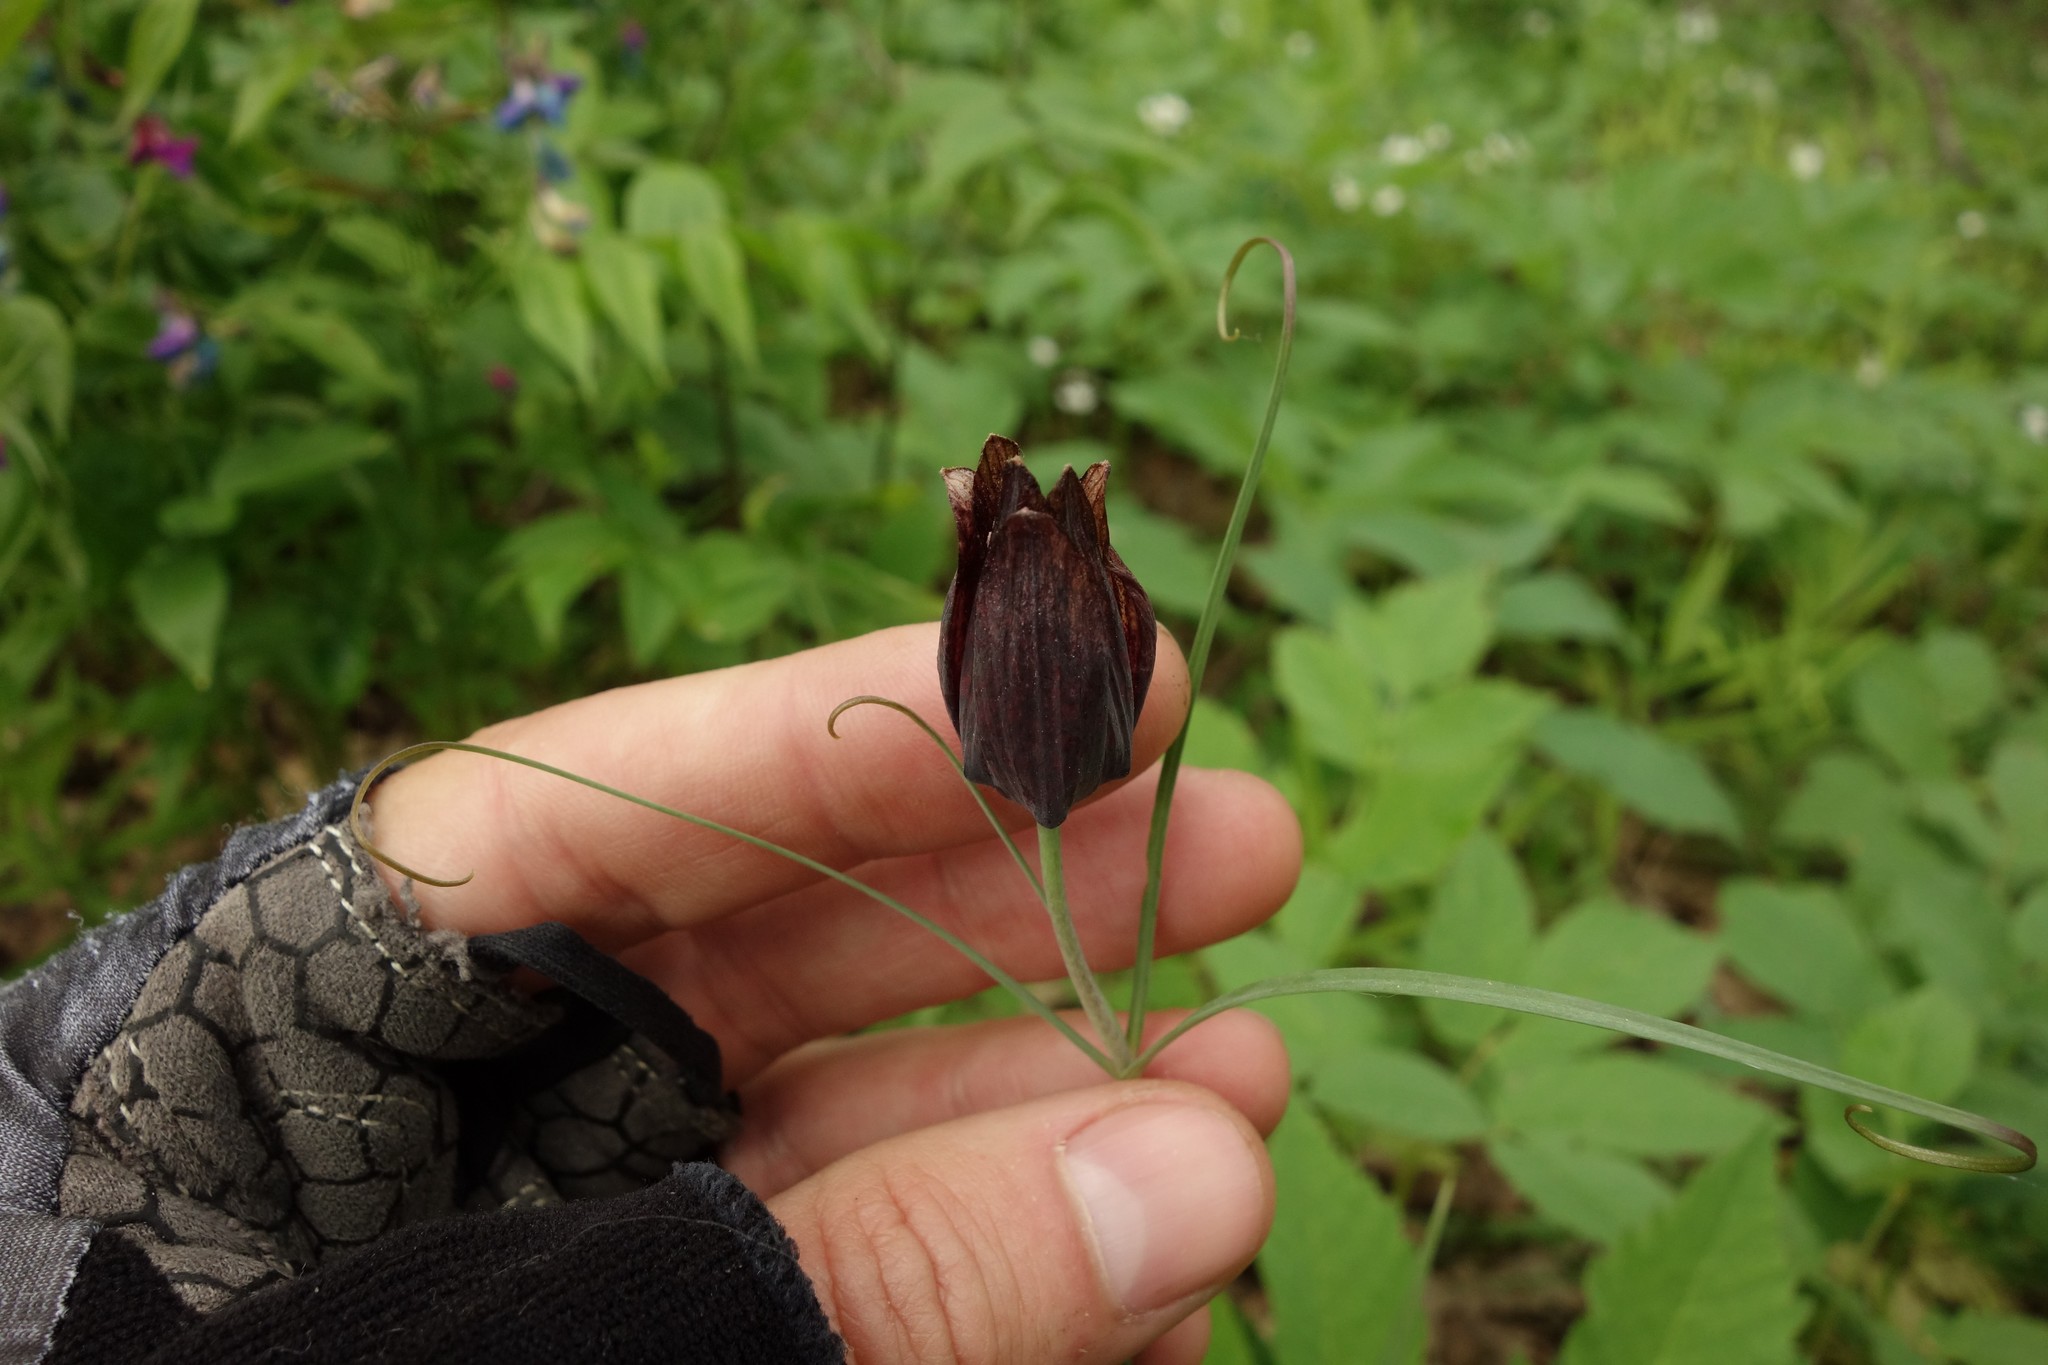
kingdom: Plantae
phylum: Tracheophyta
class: Liliopsida
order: Liliales
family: Liliaceae
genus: Fritillaria
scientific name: Fritillaria ruthenica
